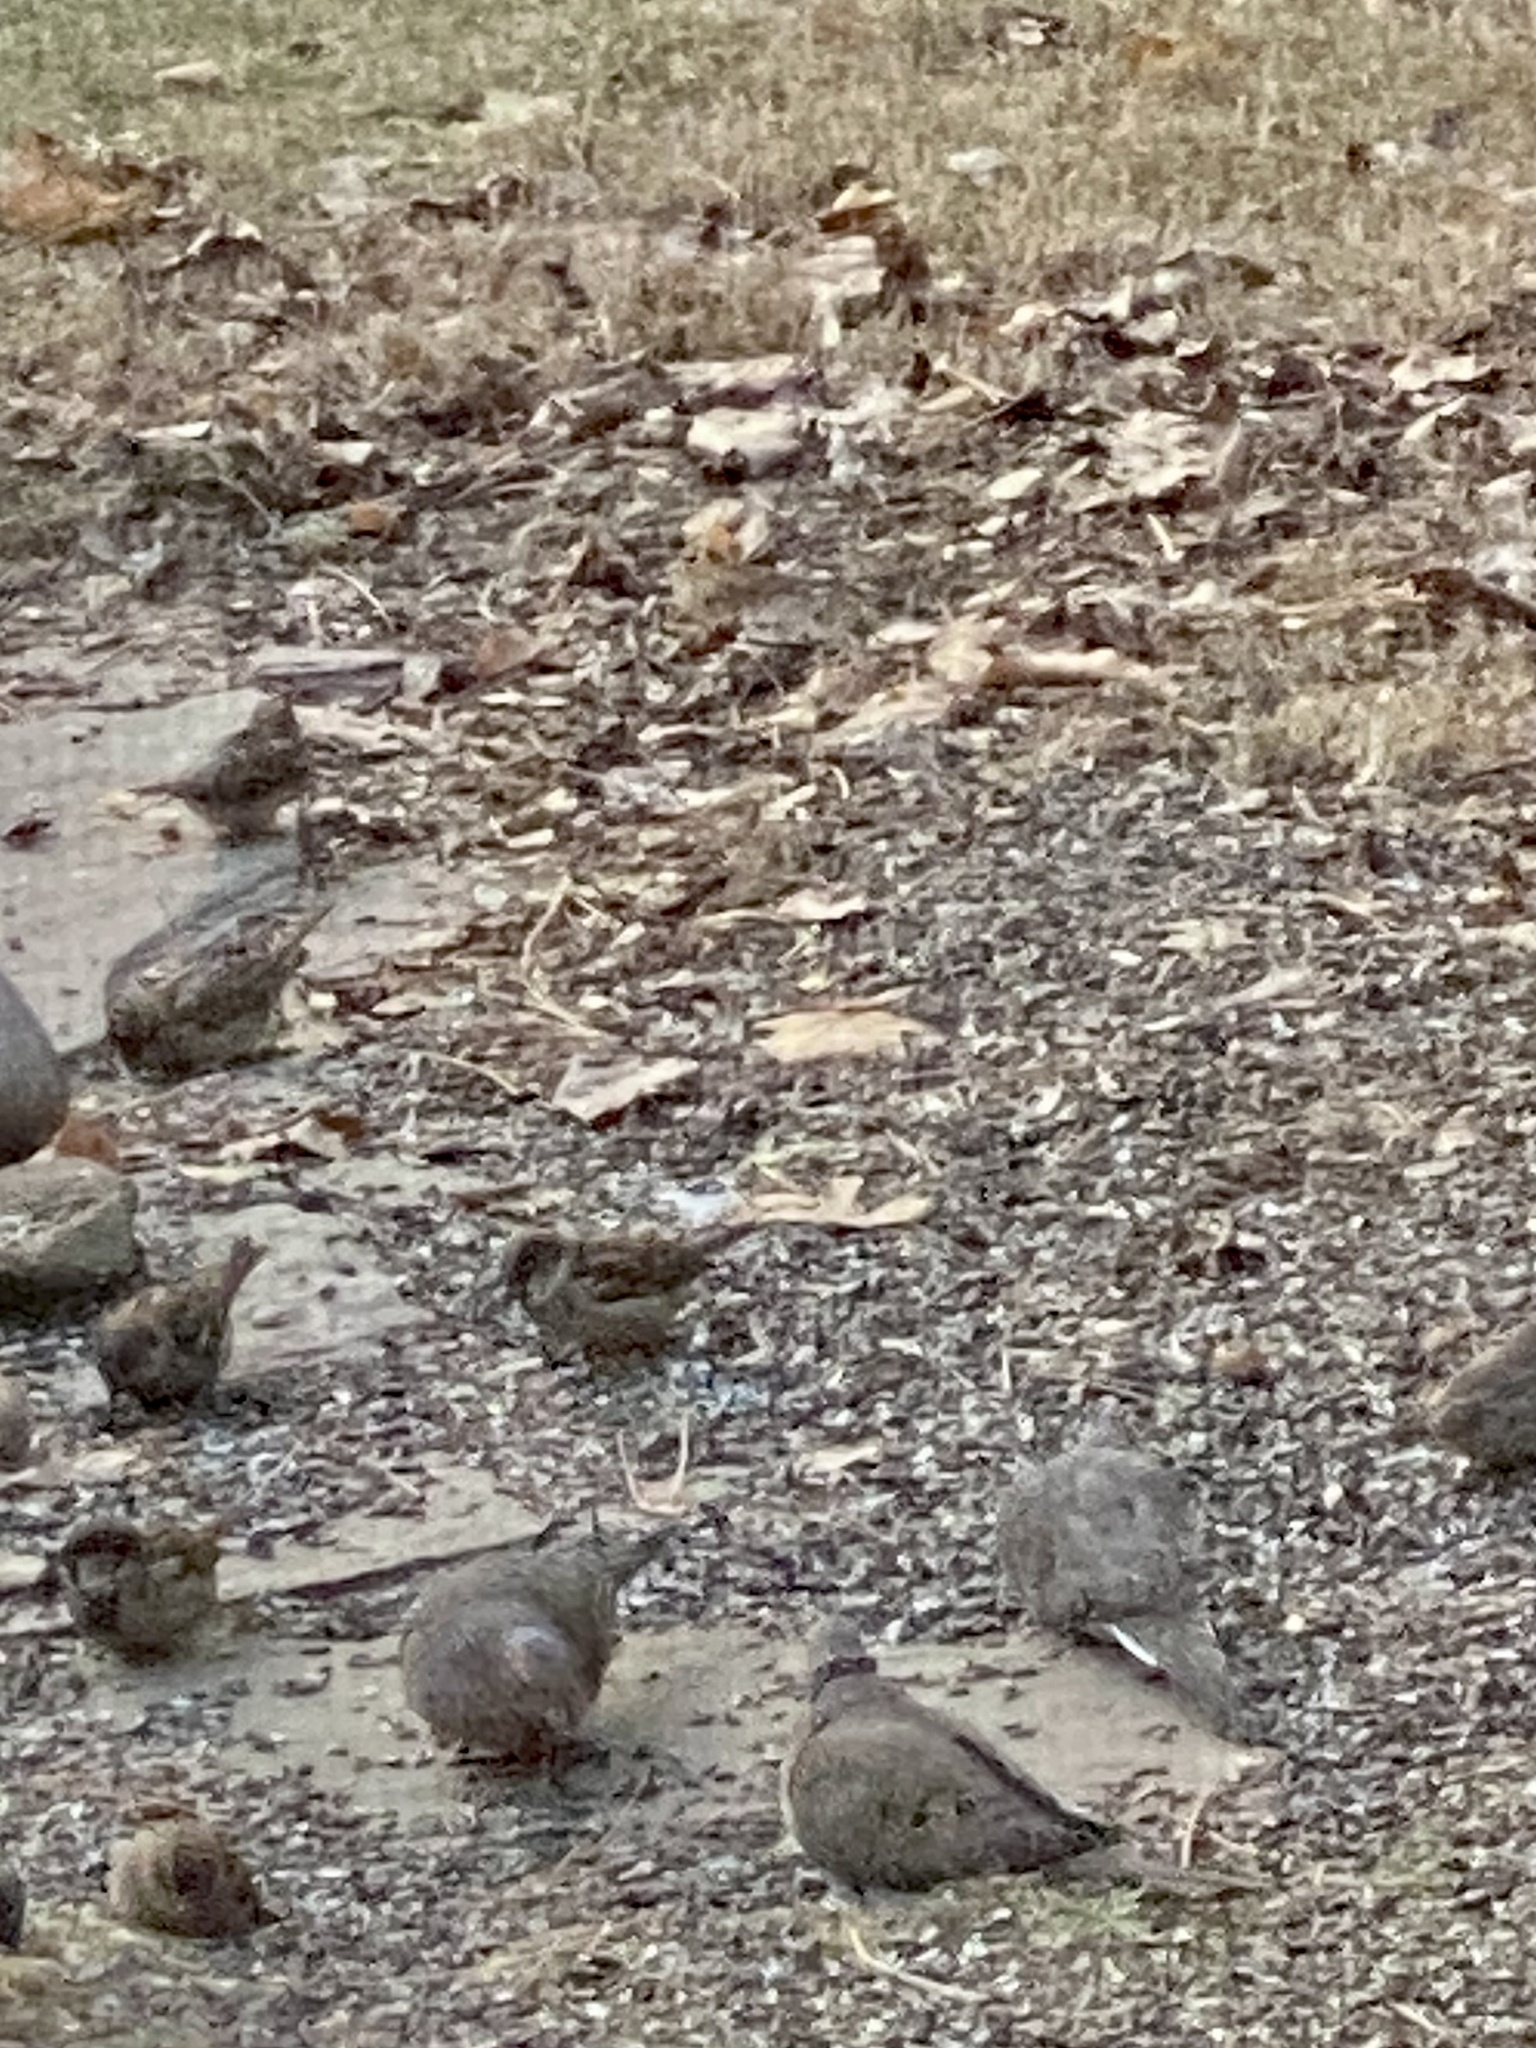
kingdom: Animalia
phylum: Chordata
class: Aves
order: Columbiformes
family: Columbidae
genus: Zenaida
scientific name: Zenaida macroura
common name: Mourning dove
